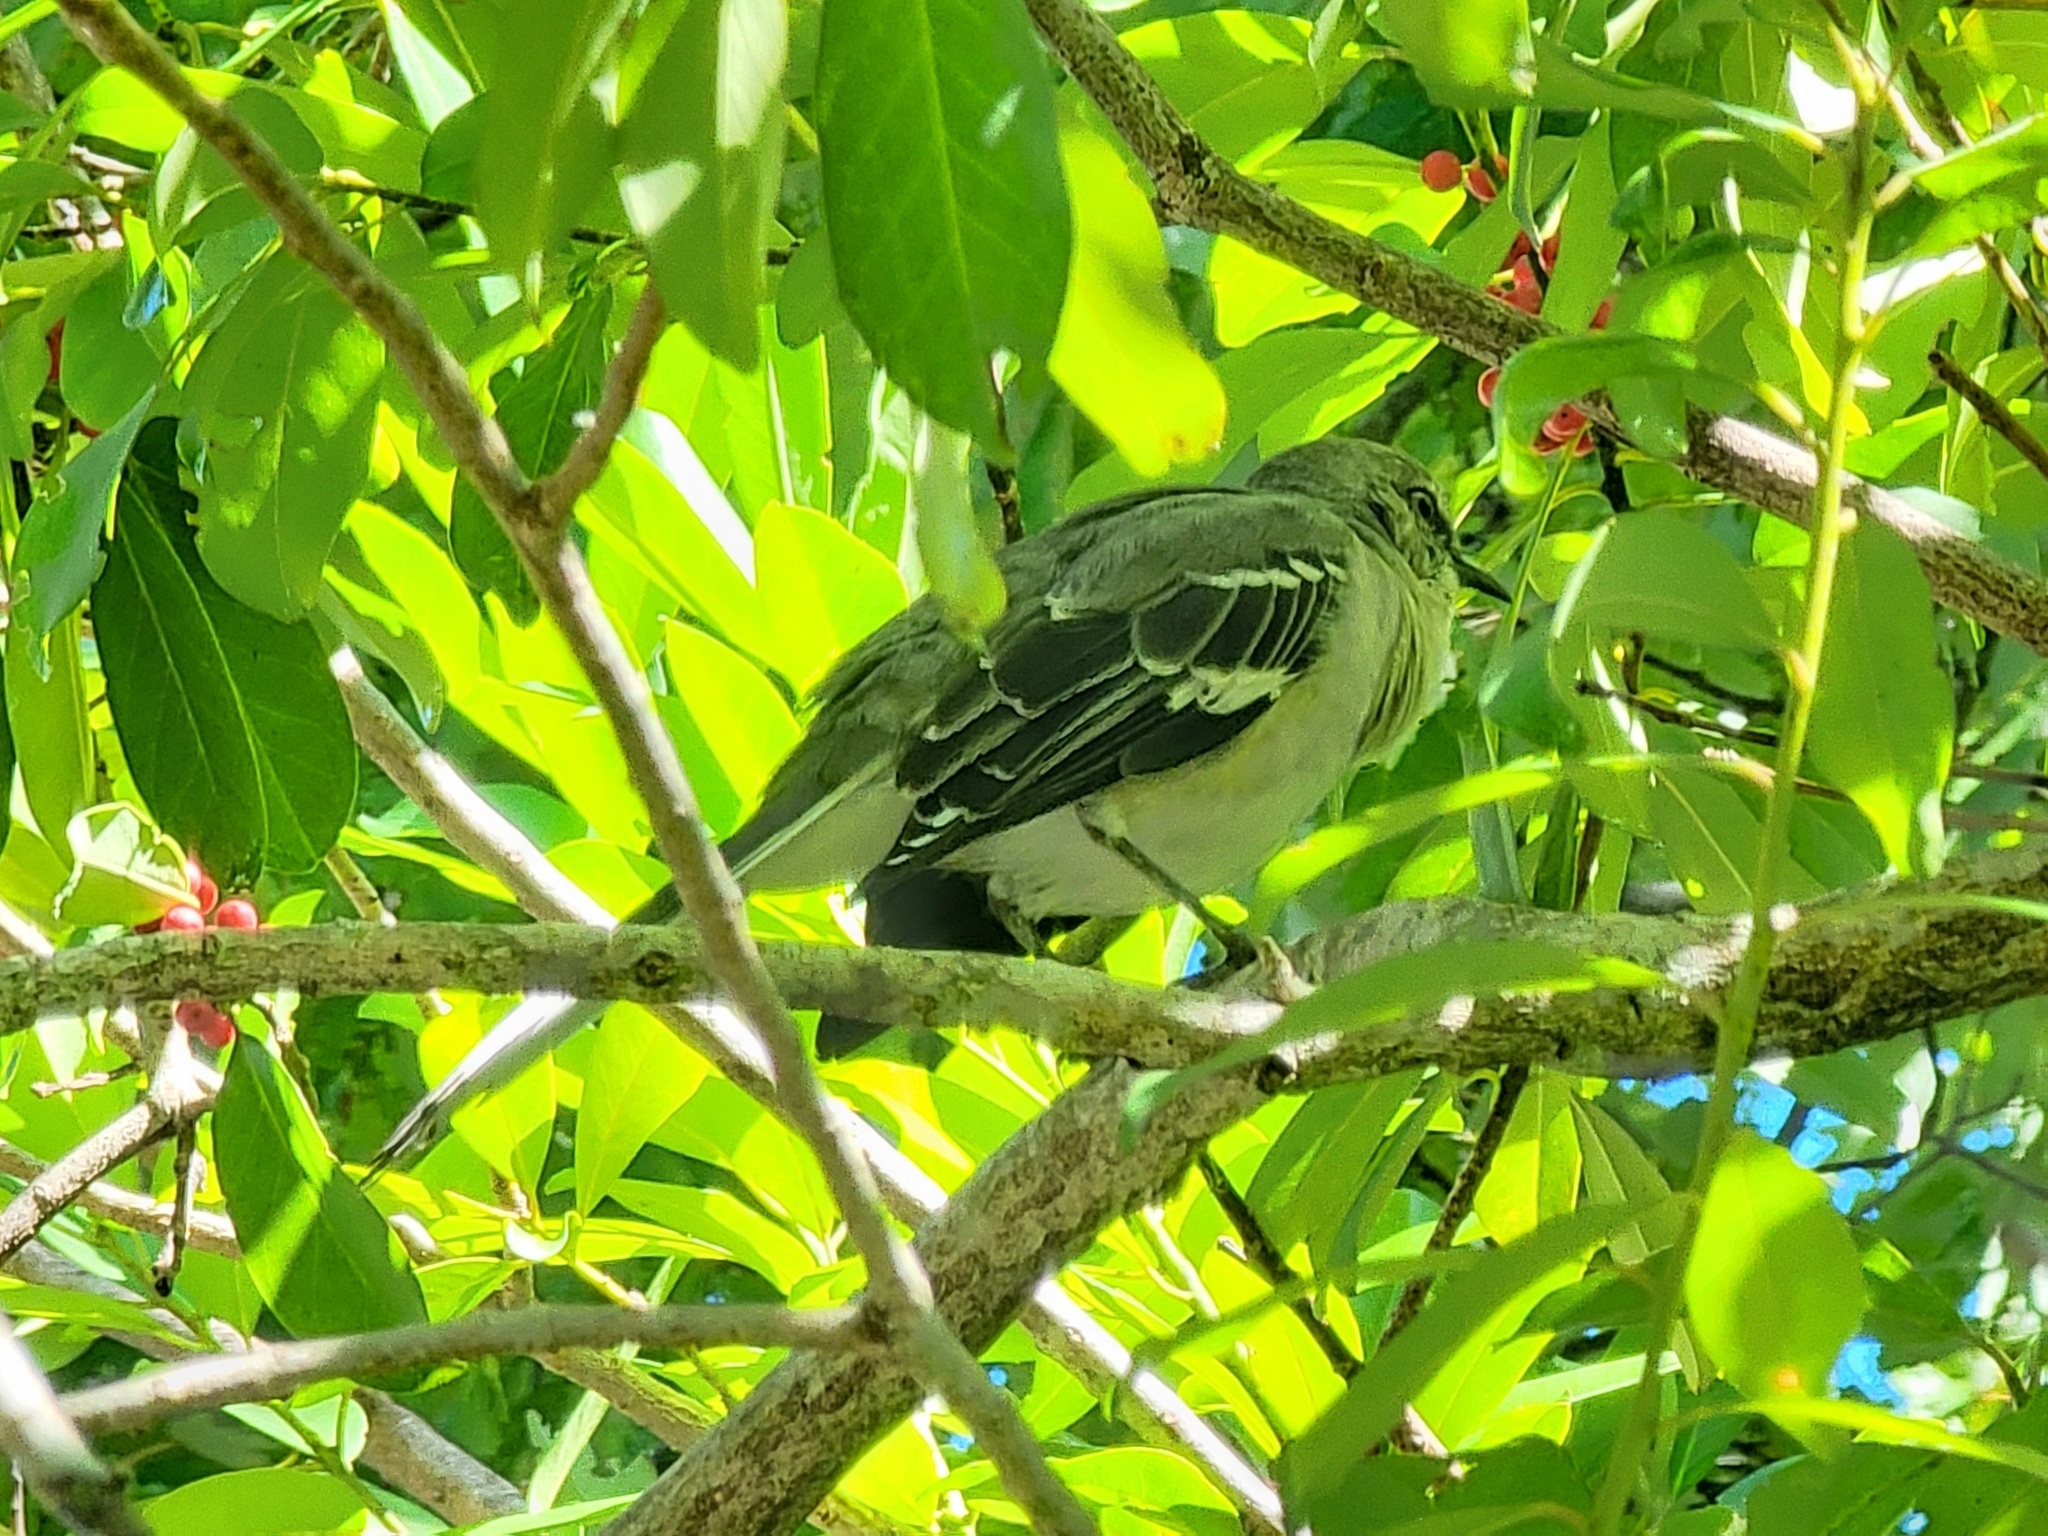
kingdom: Animalia
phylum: Chordata
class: Aves
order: Passeriformes
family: Mimidae
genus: Mimus
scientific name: Mimus polyglottos
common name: Northern mockingbird
